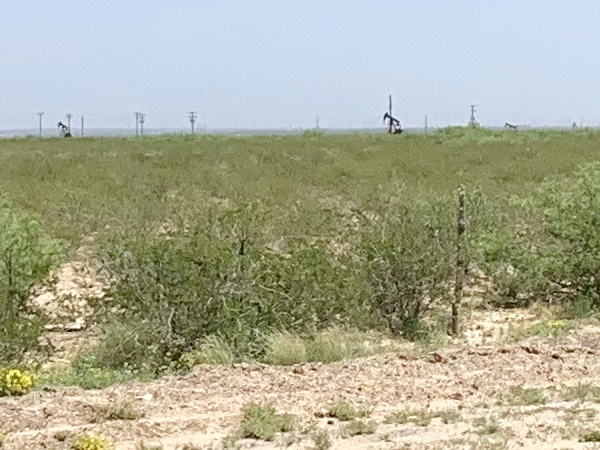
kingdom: Plantae
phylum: Tracheophyta
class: Magnoliopsida
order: Zygophyllales
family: Zygophyllaceae
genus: Larrea
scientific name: Larrea tridentata
